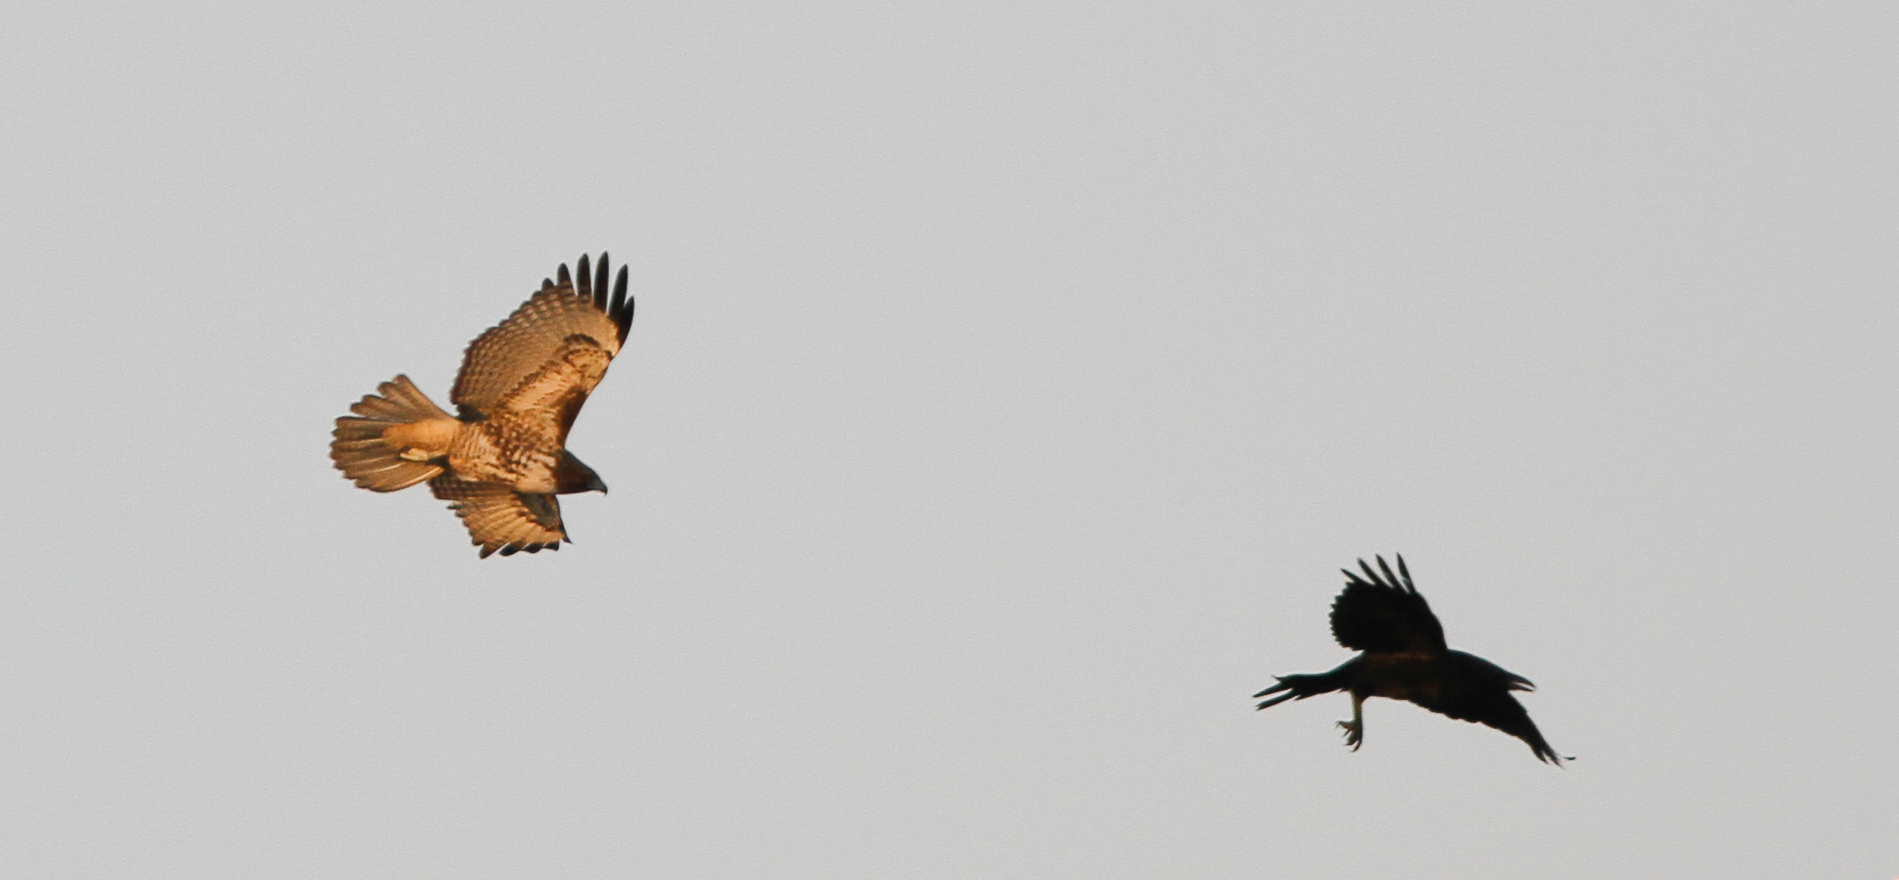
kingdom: Animalia
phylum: Chordata
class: Aves
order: Accipitriformes
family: Accipitridae
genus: Buteo
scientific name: Buteo jamaicensis
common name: Red-tailed hawk
